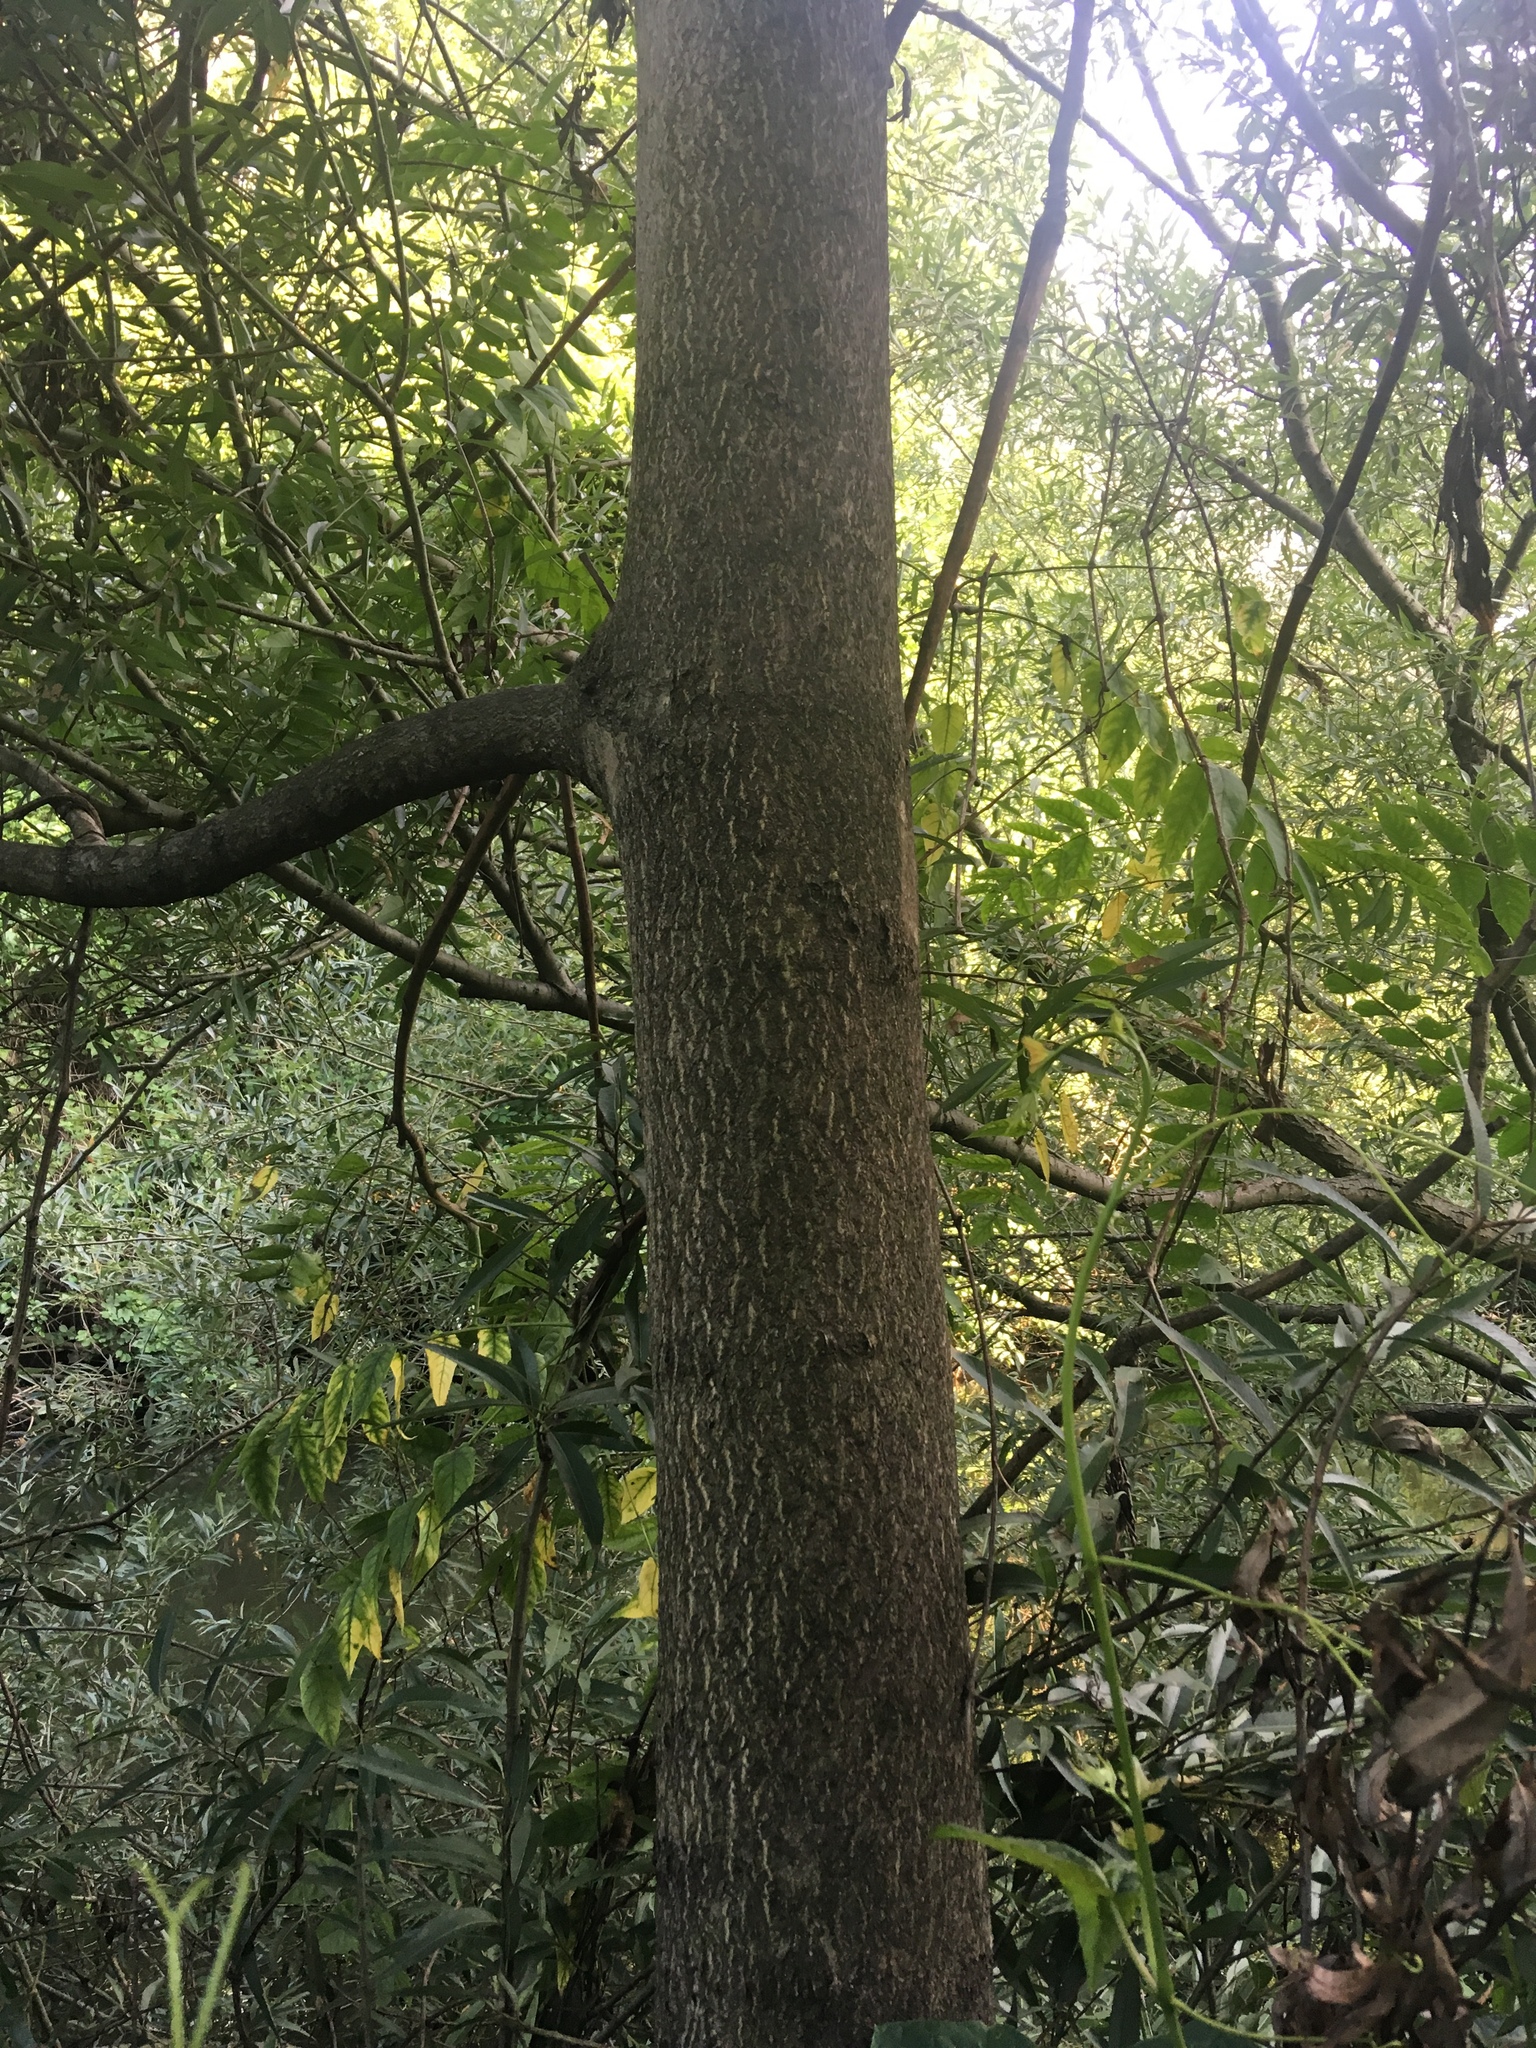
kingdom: Plantae
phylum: Tracheophyta
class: Magnoliopsida
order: Sapindales
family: Simaroubaceae
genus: Ailanthus
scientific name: Ailanthus altissima
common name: Tree-of-heaven
